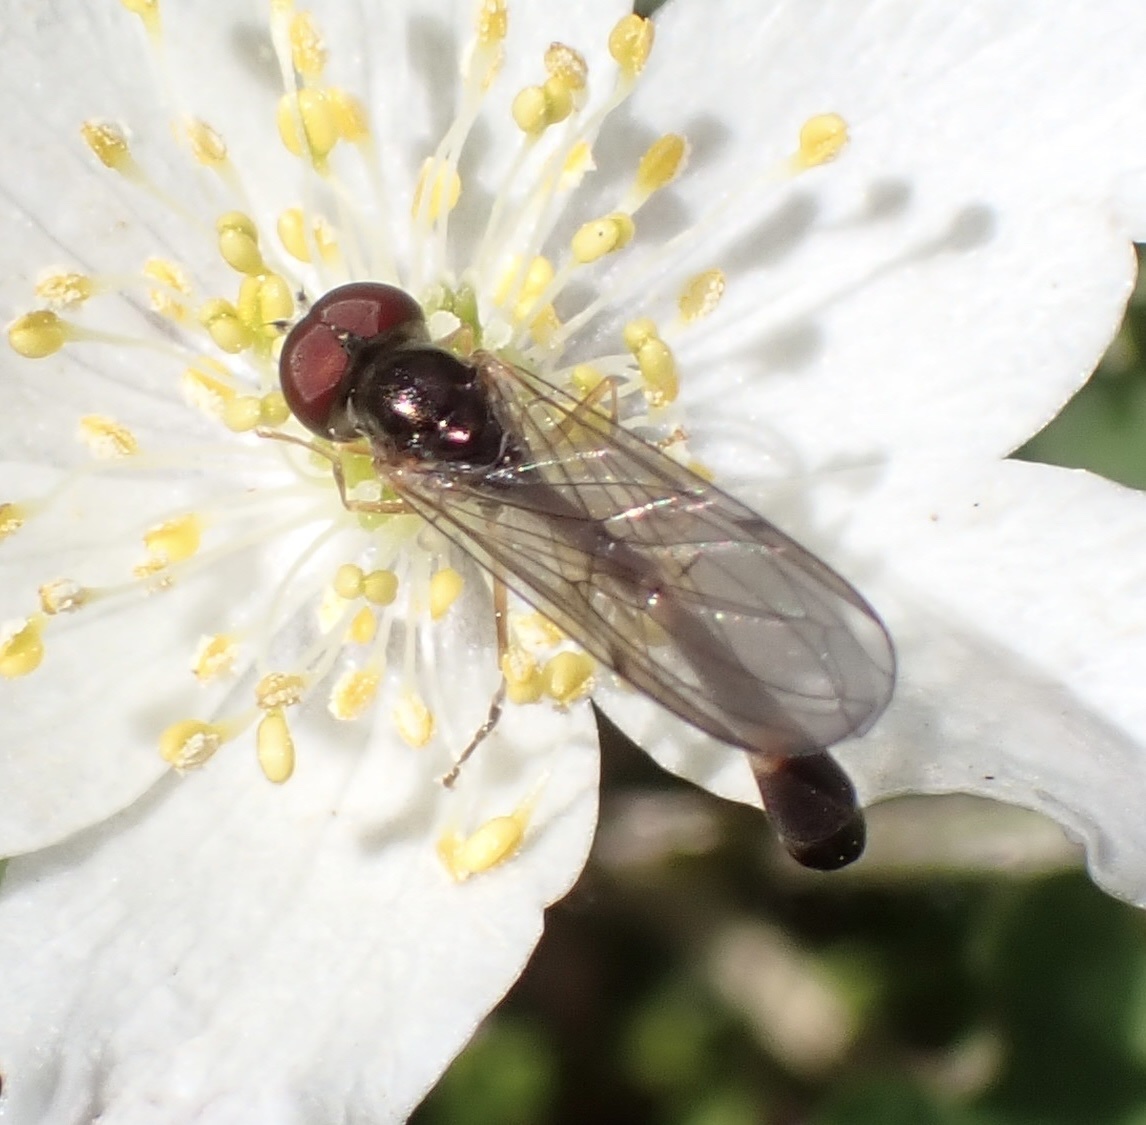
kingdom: Animalia
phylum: Arthropoda
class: Insecta
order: Diptera
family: Syrphidae
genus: Baccha
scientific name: Baccha elongata
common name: Common dainty
